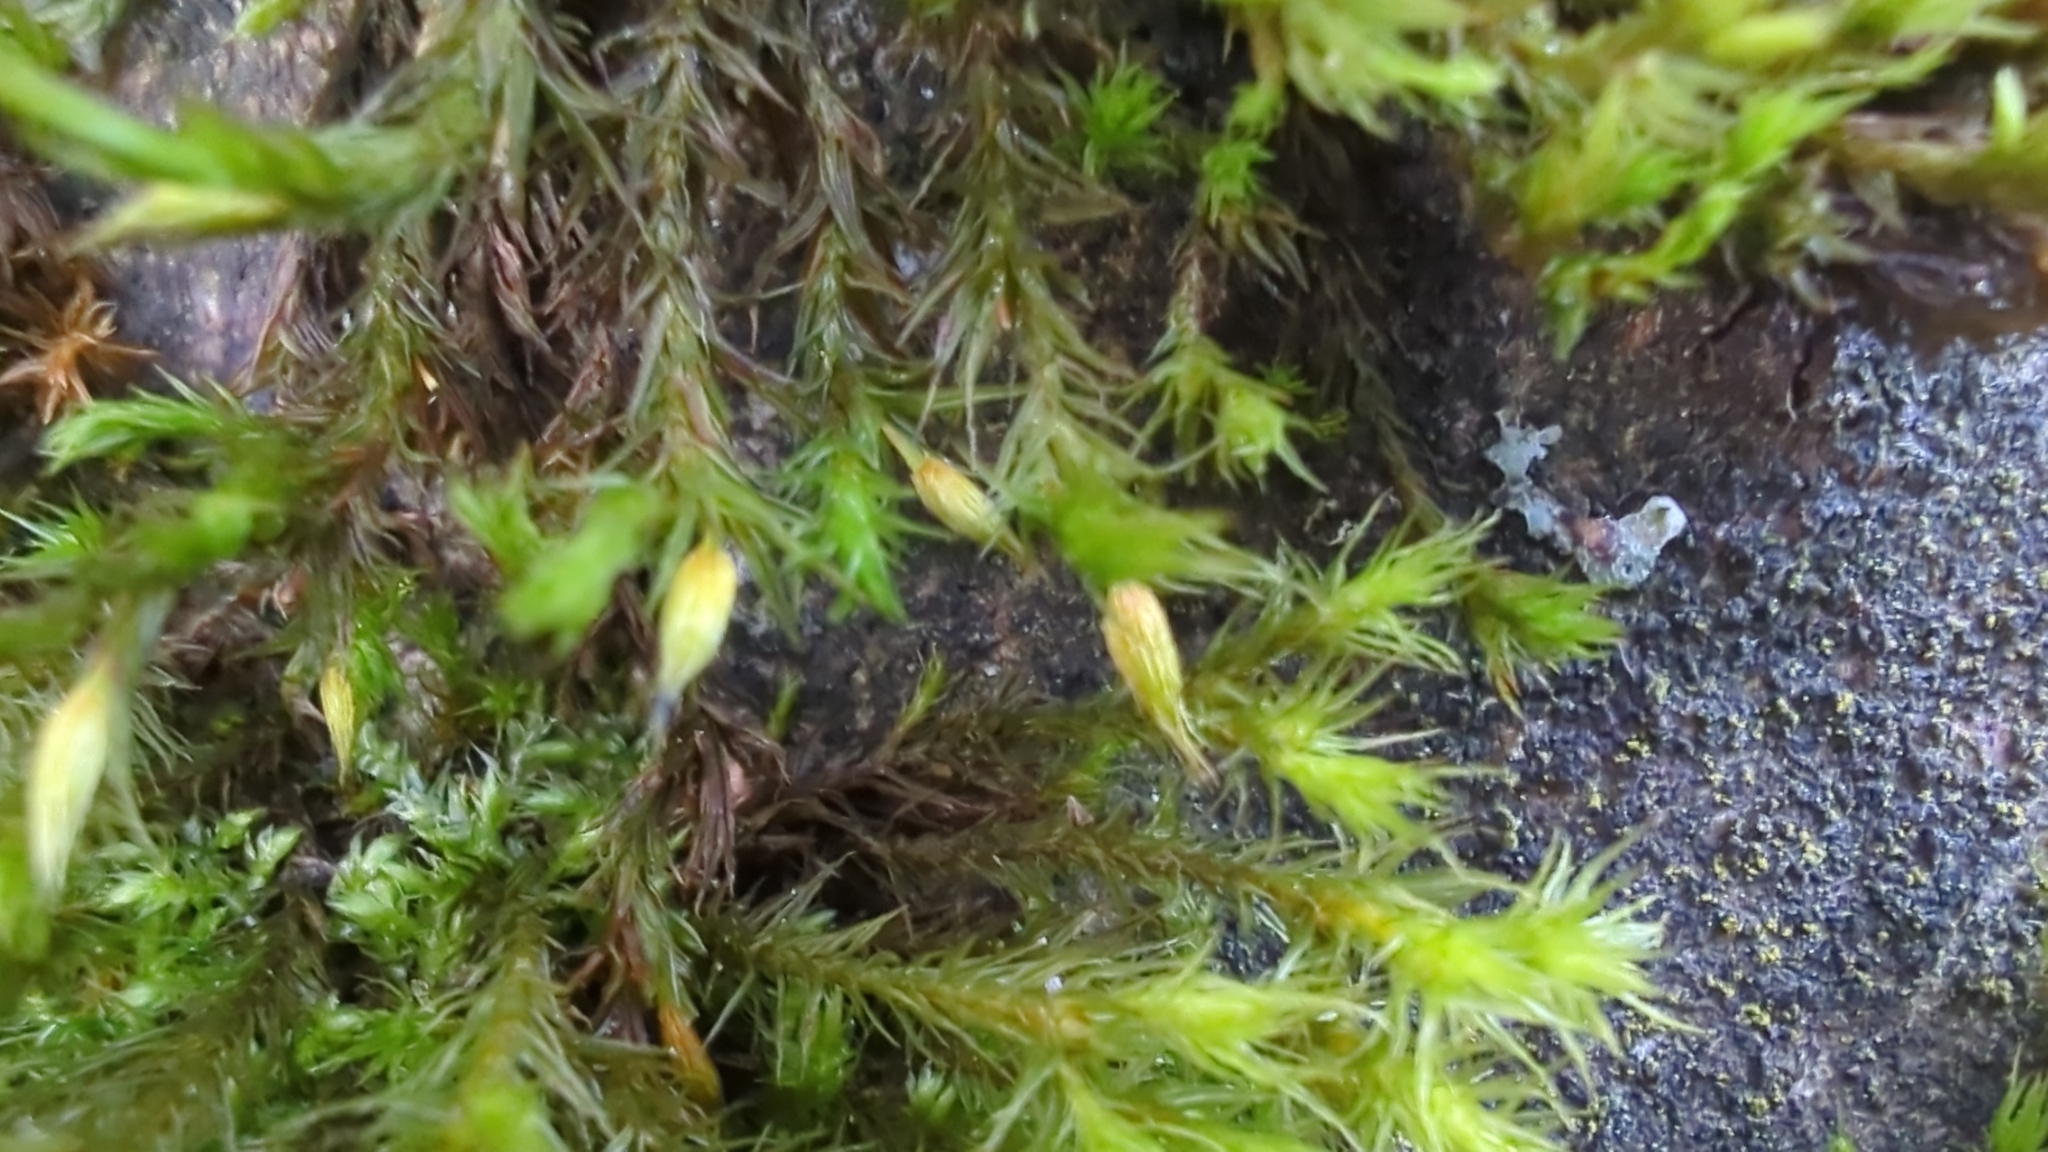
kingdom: Plantae
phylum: Bryophyta
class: Bryopsida
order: Orthotrichales
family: Orthotrichaceae
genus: Pulvigera
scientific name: Pulvigera pringlei
